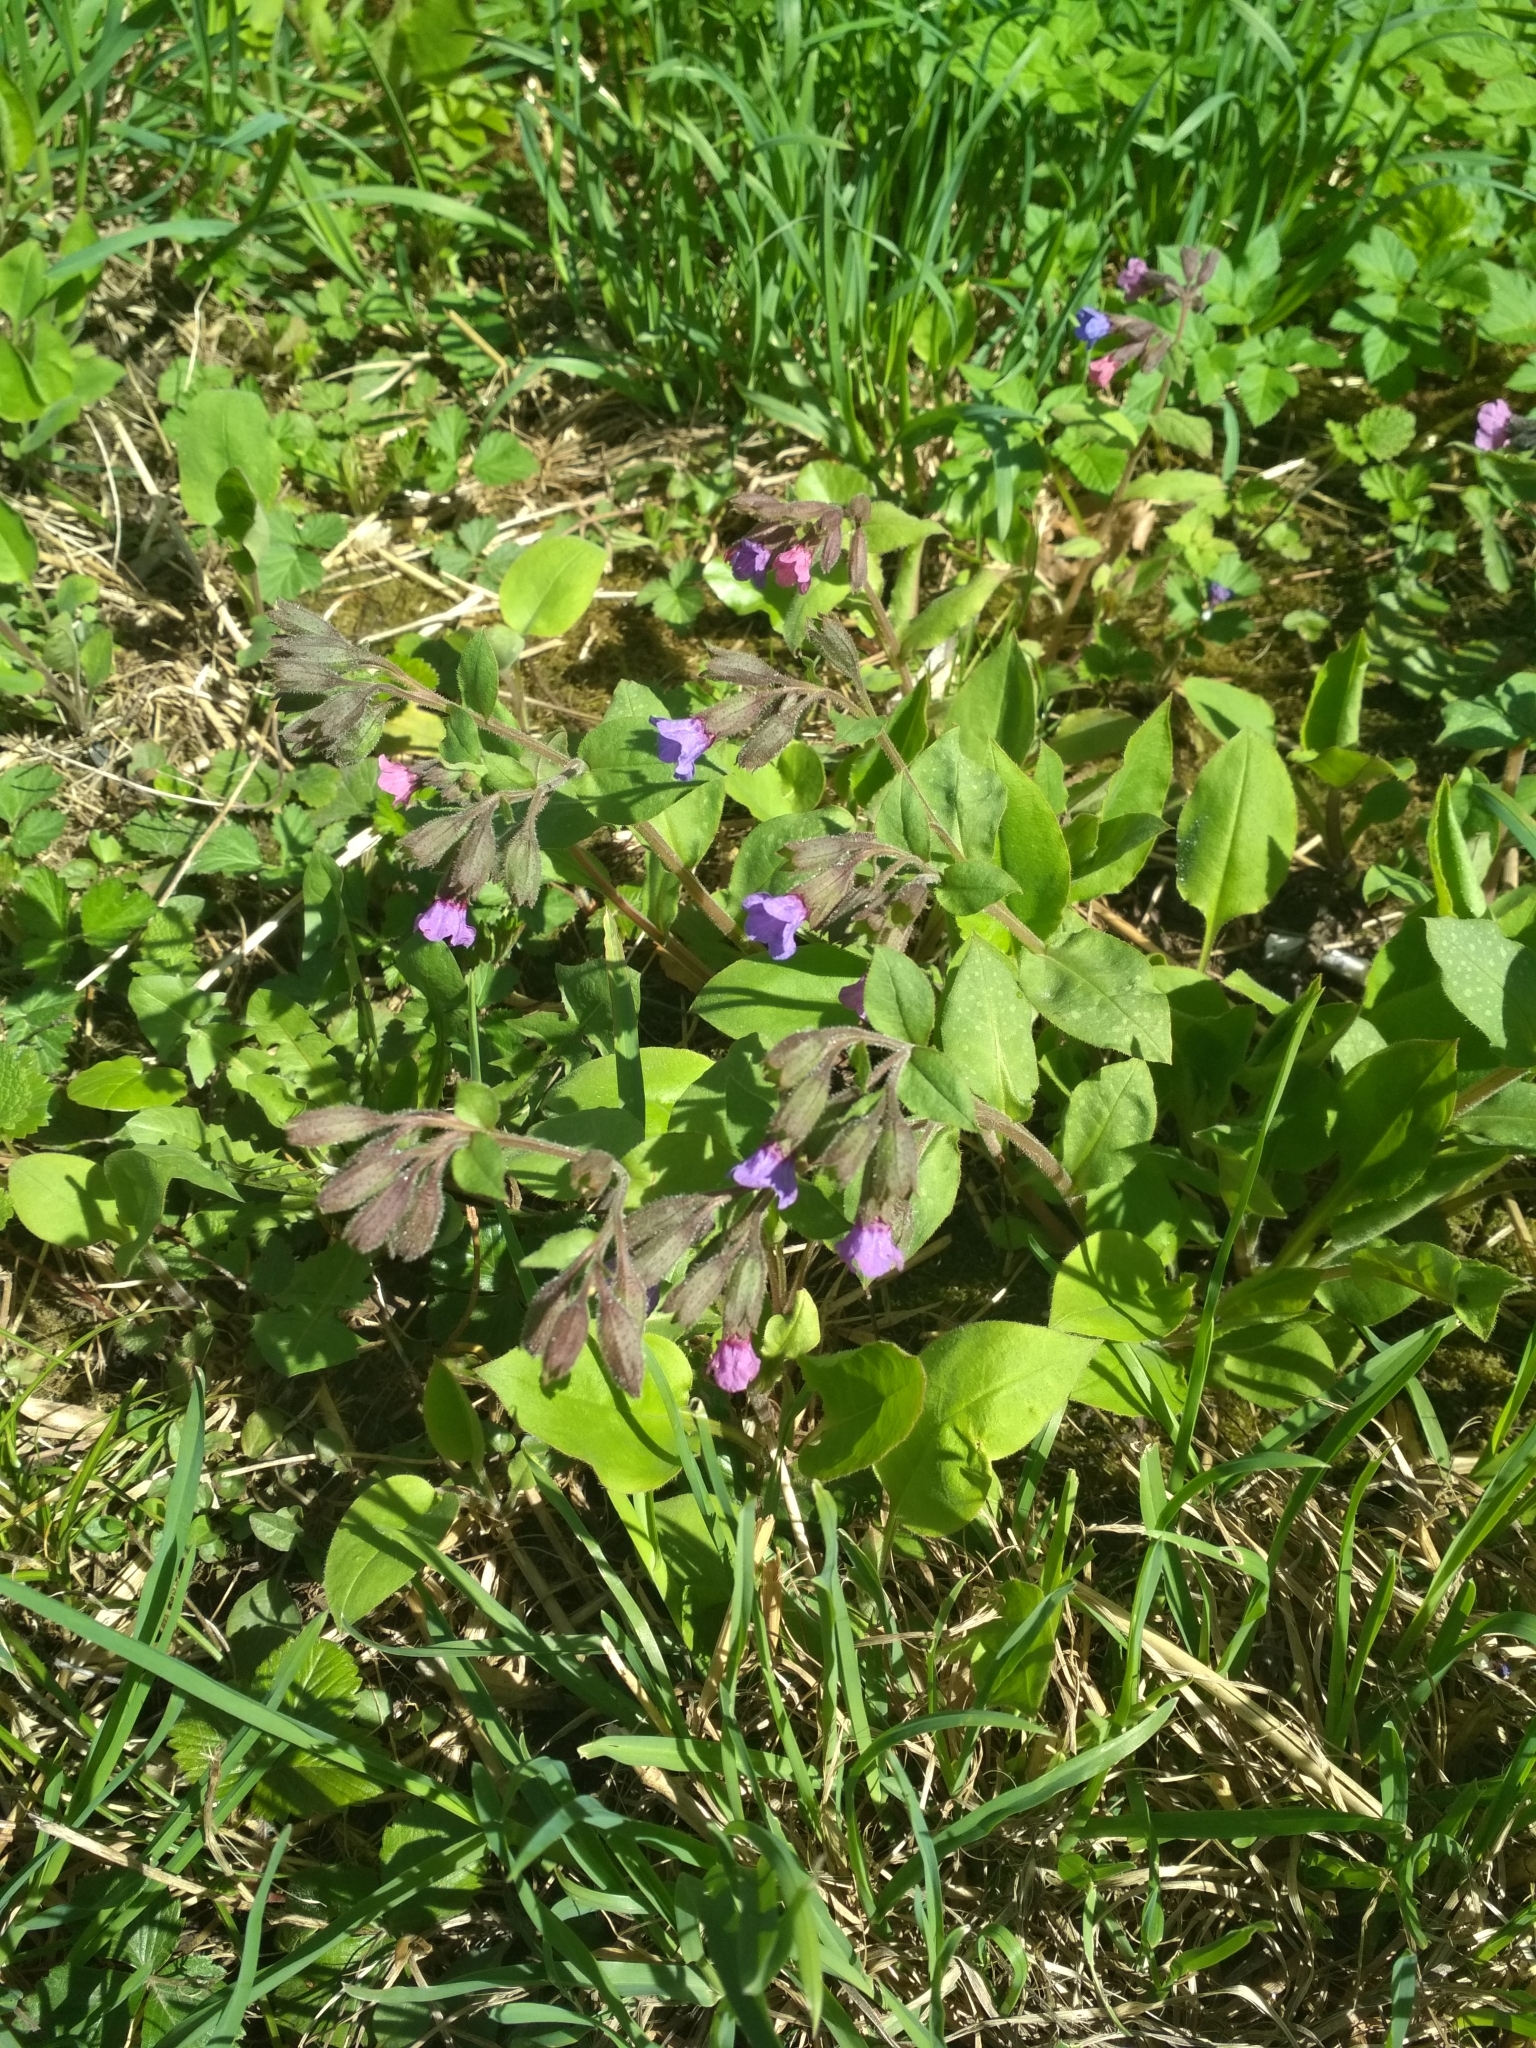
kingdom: Plantae
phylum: Tracheophyta
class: Magnoliopsida
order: Boraginales
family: Boraginaceae
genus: Pulmonaria
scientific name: Pulmonaria obscura
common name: Suffolk lungwort
